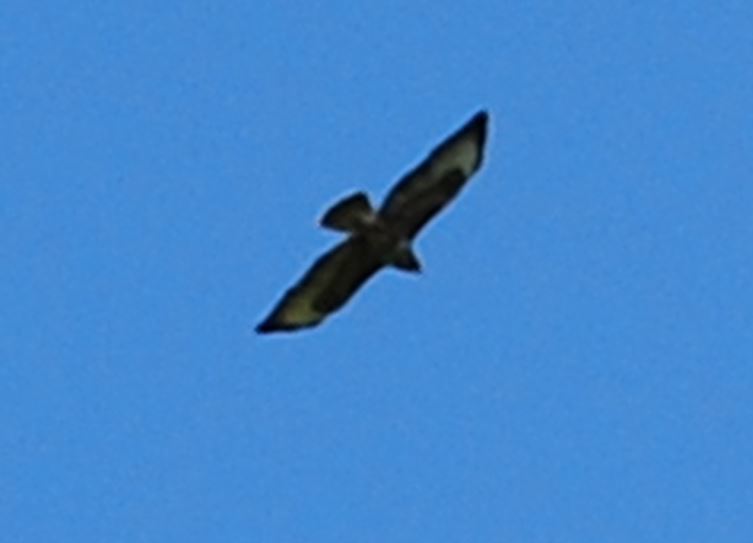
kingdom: Animalia
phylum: Chordata
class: Aves
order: Accipitriformes
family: Accipitridae
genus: Buteo
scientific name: Buteo buteo
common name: Common buzzard
